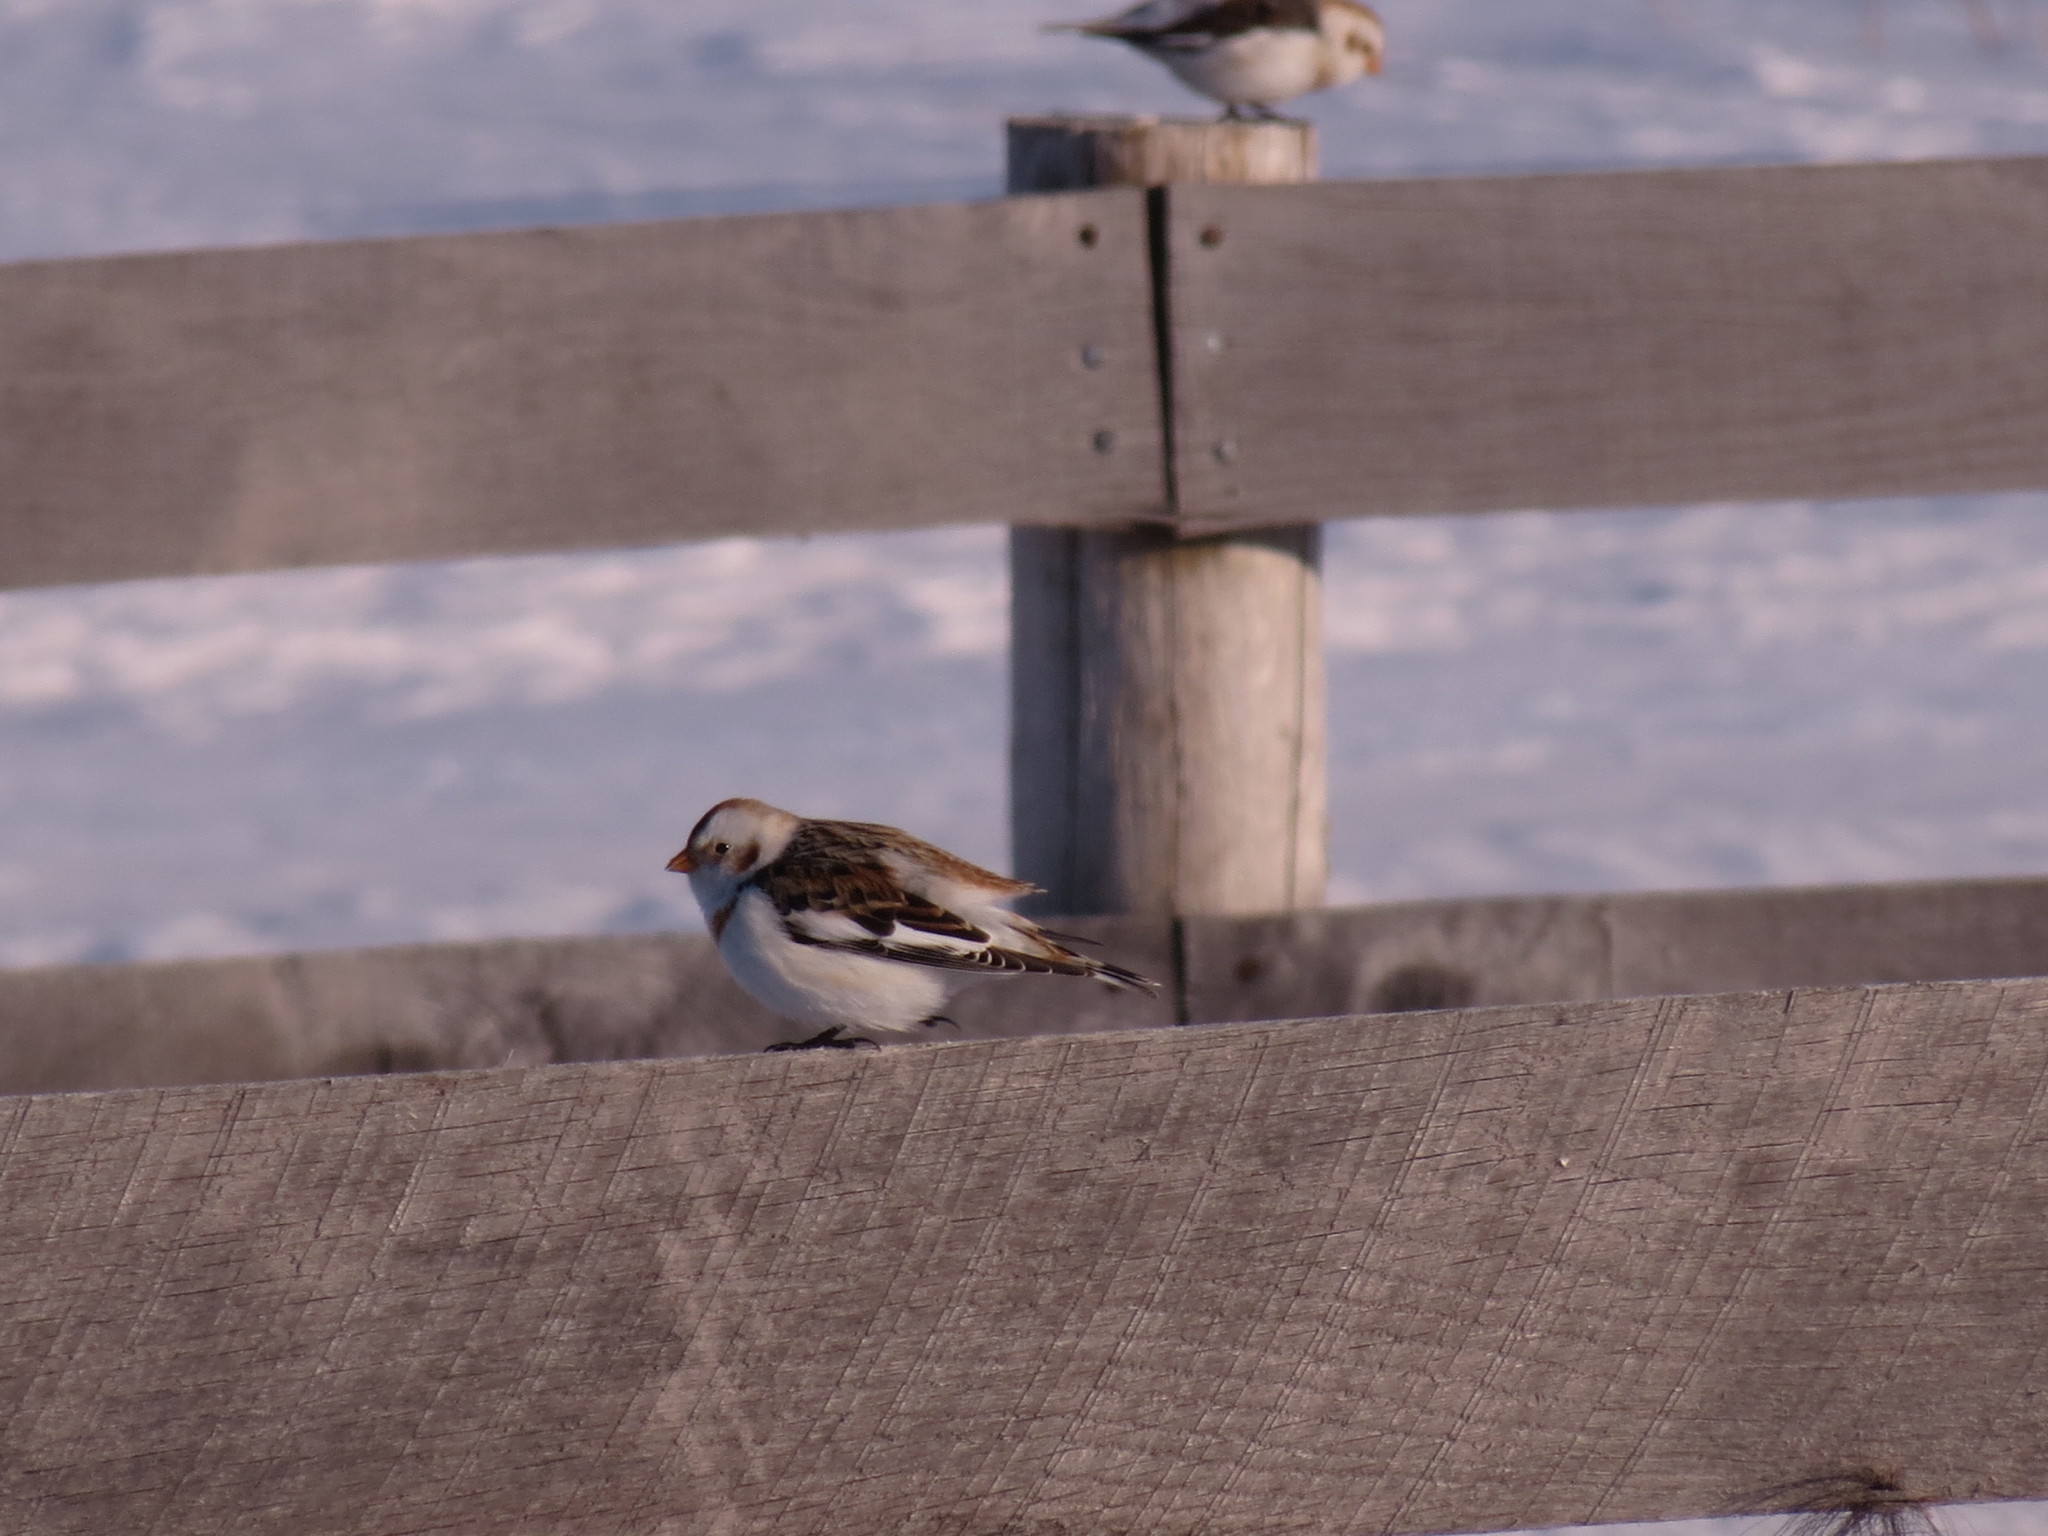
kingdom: Animalia
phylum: Chordata
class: Aves
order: Passeriformes
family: Calcariidae
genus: Plectrophenax
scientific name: Plectrophenax nivalis
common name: Snow bunting
